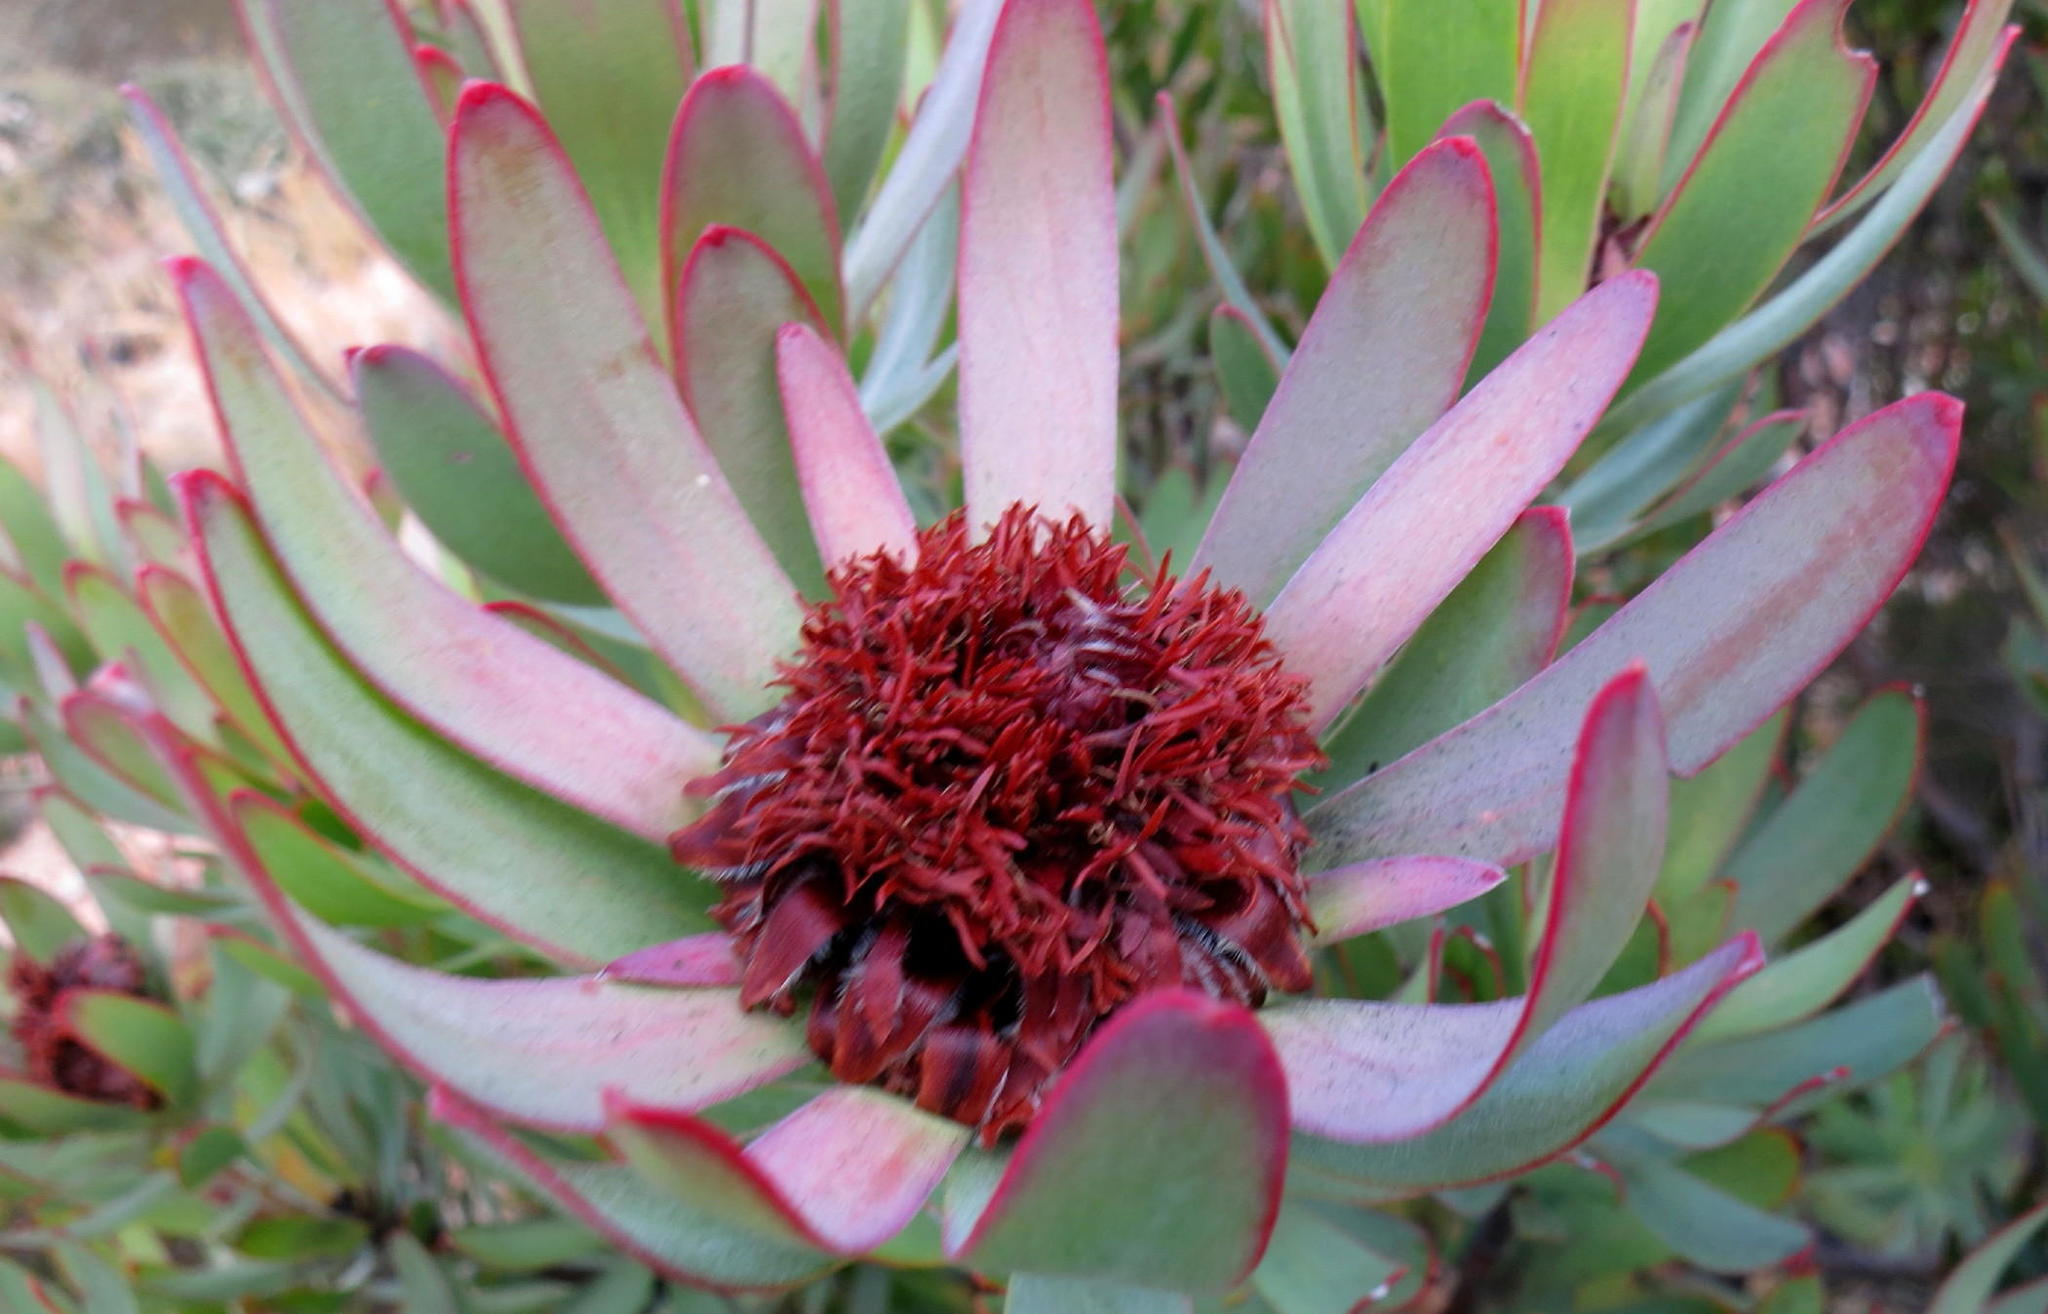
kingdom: Plantae
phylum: Tracheophyta
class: Magnoliopsida
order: Proteales
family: Proteaceae
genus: Leucadendron
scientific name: Leucadendron barkerae
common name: Swartberg conebush
